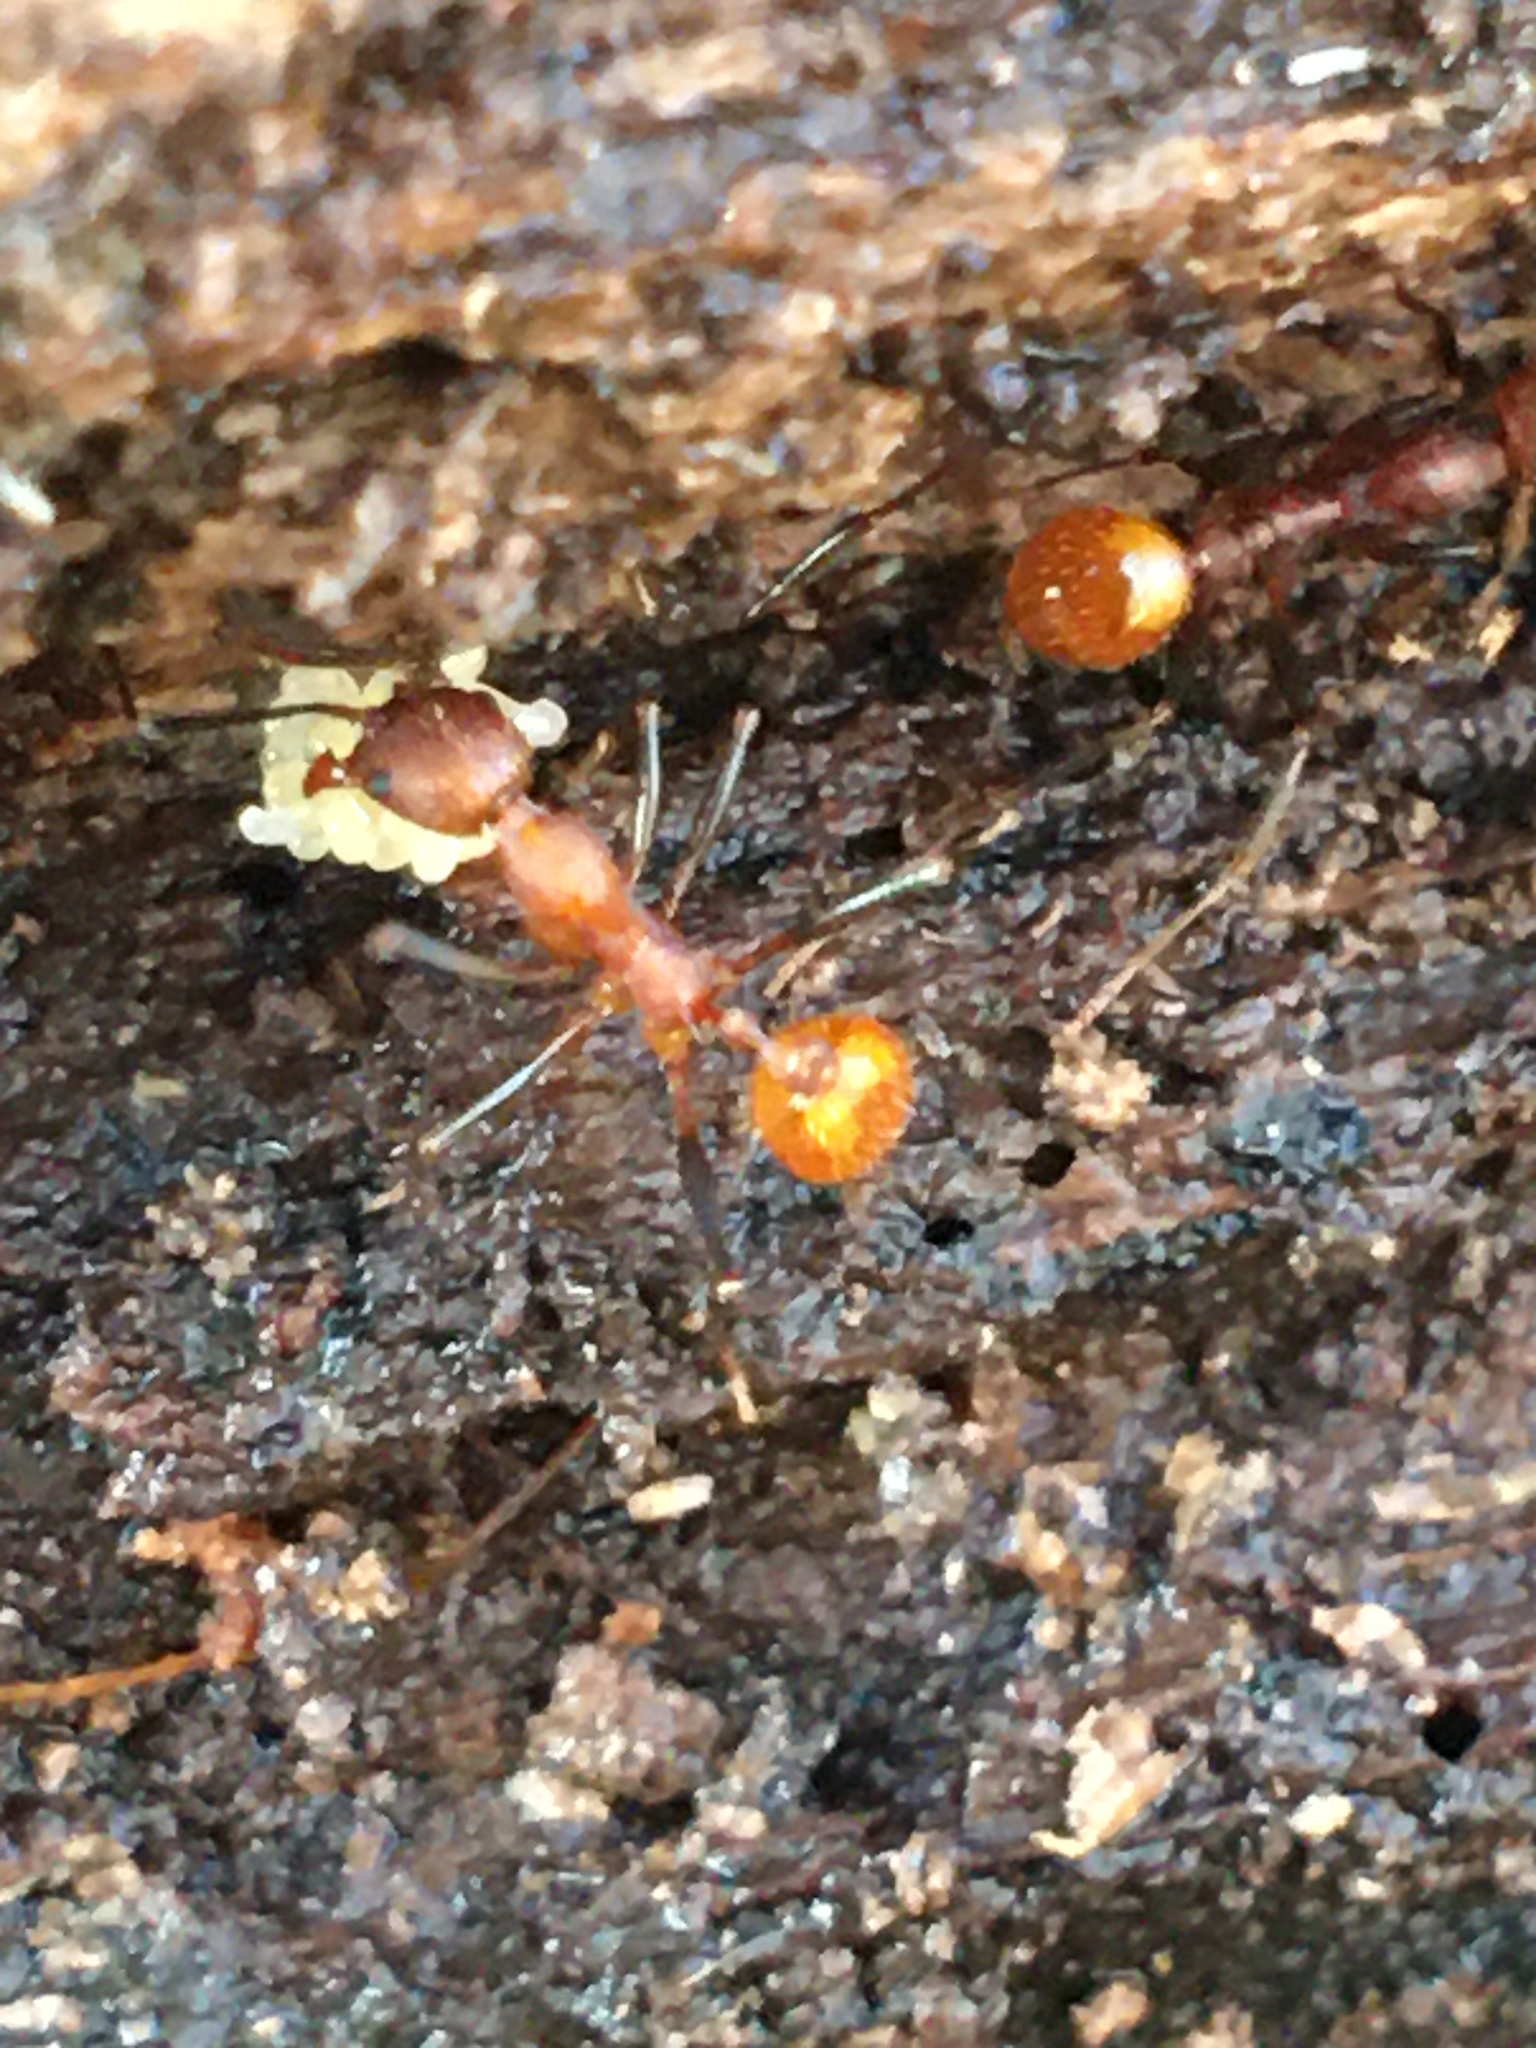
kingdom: Animalia
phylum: Arthropoda
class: Insecta
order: Hymenoptera
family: Formicidae
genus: Aphaenogaster
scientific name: Aphaenogaster lamellidens
